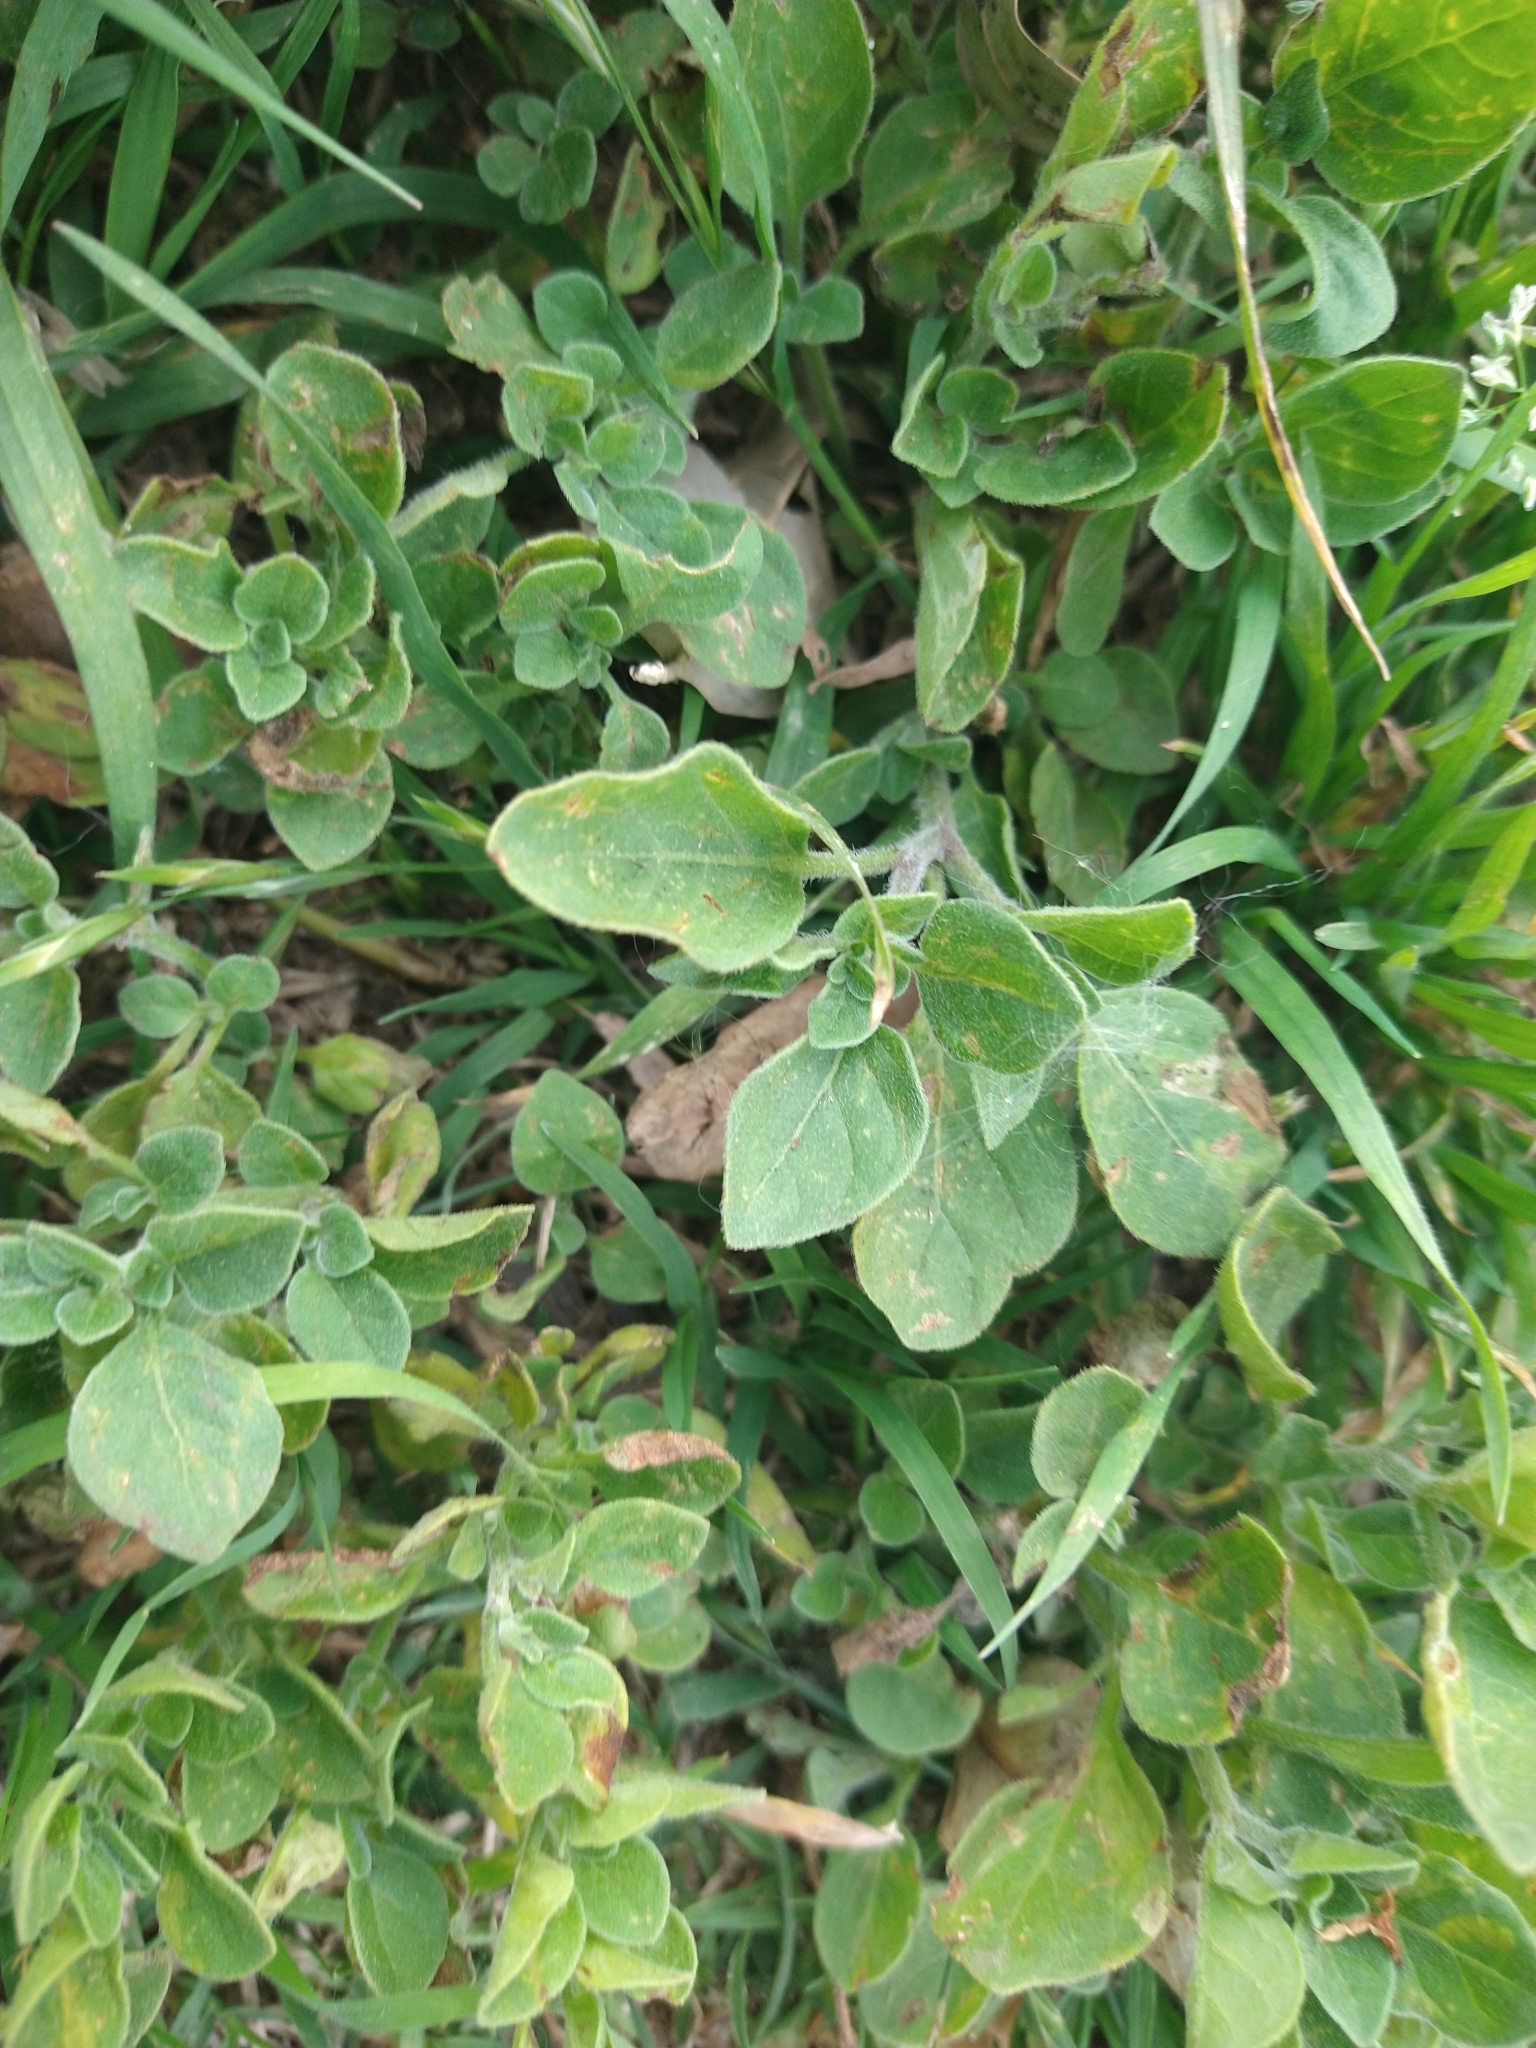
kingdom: Plantae
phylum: Tracheophyta
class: Magnoliopsida
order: Solanales
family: Solanaceae
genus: Salpichroa
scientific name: Salpichroa origanifolia
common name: Lily-of-the-valley-vine
